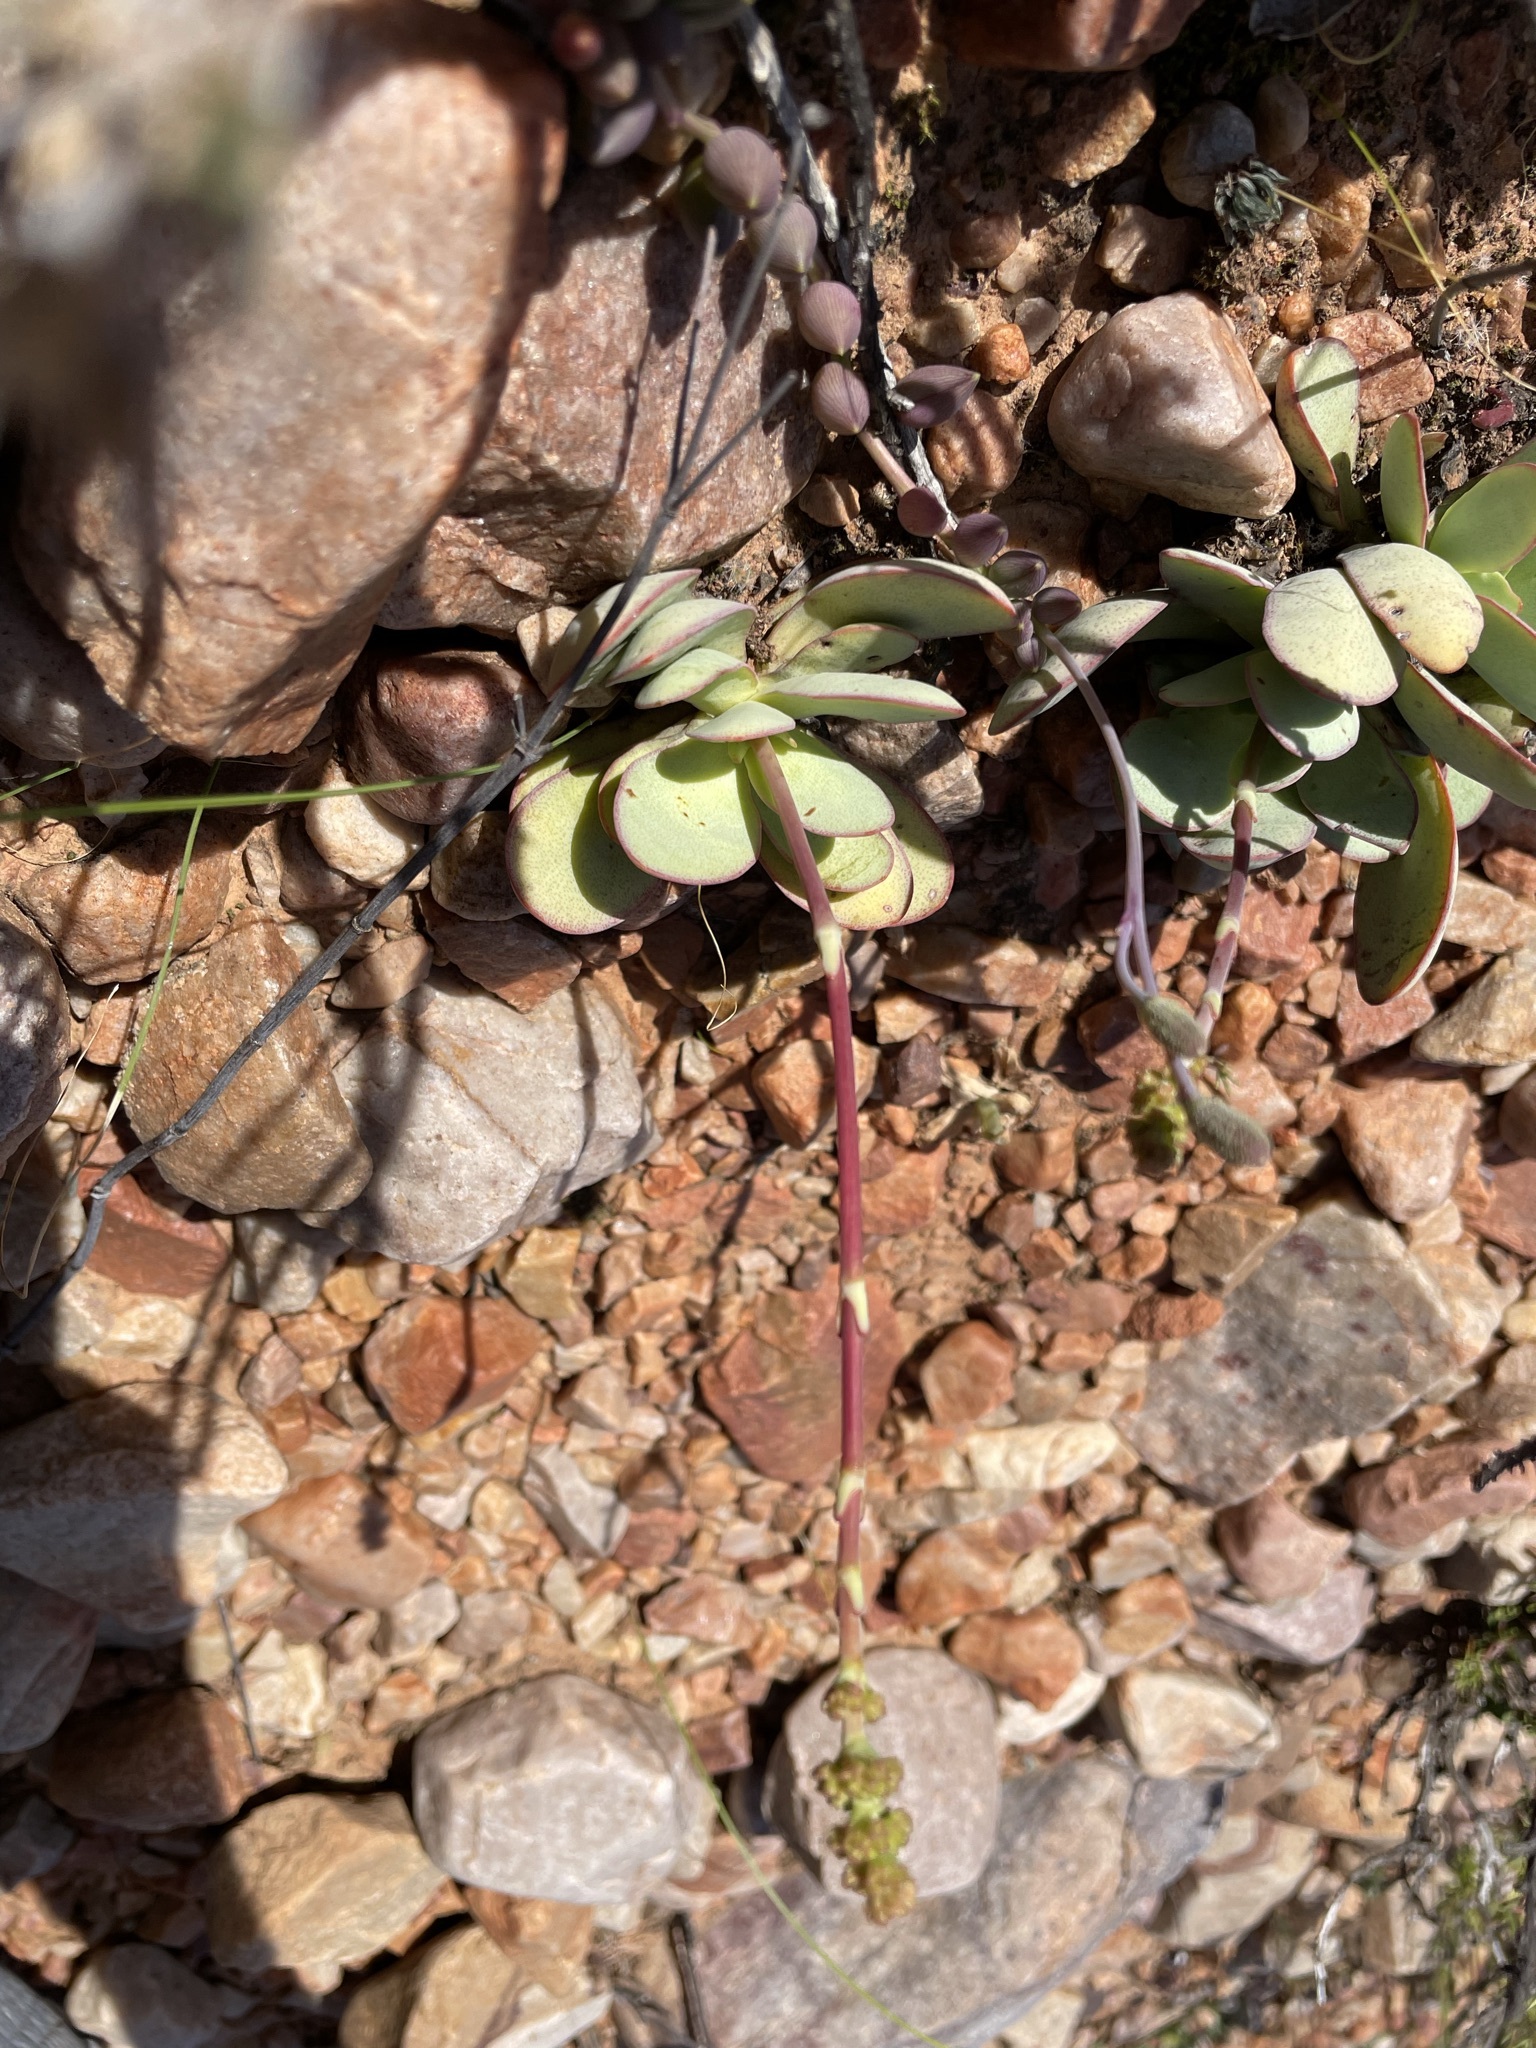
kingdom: Plantae
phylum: Tracheophyta
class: Magnoliopsida
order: Saxifragales
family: Crassulaceae
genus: Crassula
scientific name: Crassula atropurpurea
